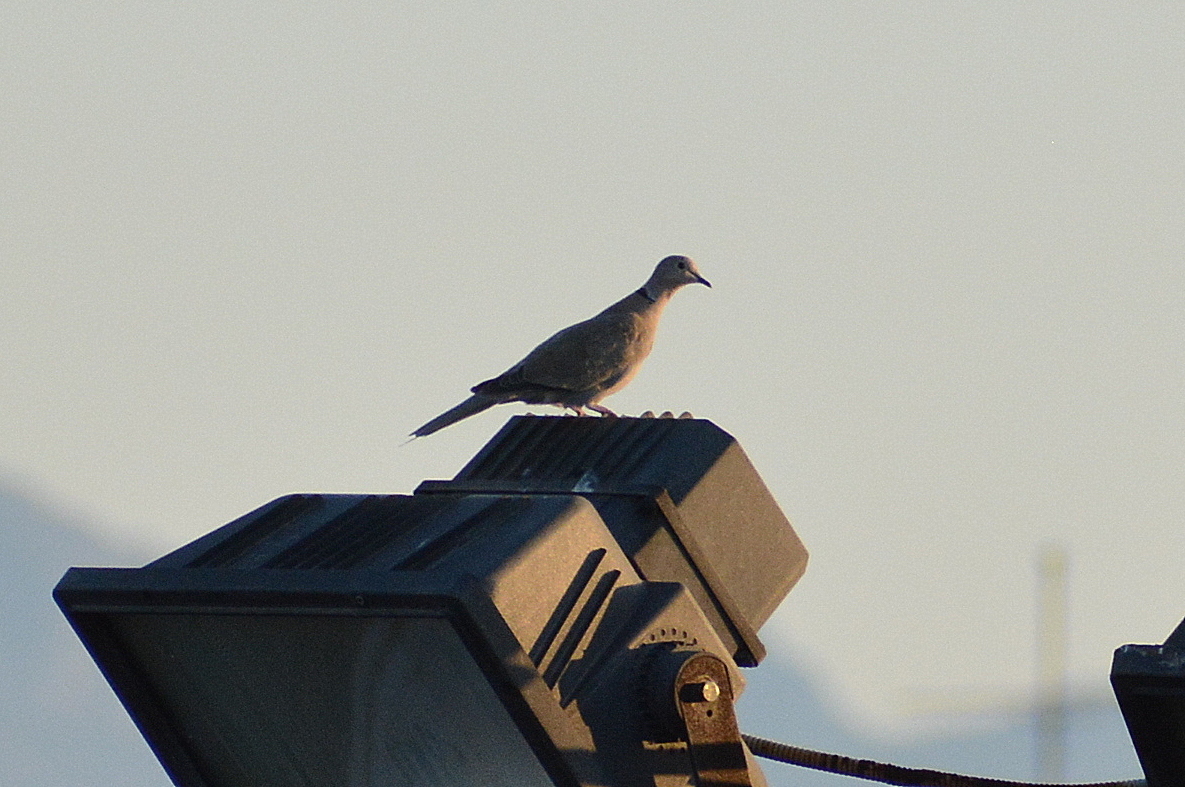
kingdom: Animalia
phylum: Chordata
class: Aves
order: Columbiformes
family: Columbidae
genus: Streptopelia
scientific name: Streptopelia decaocto
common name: Eurasian collared dove
